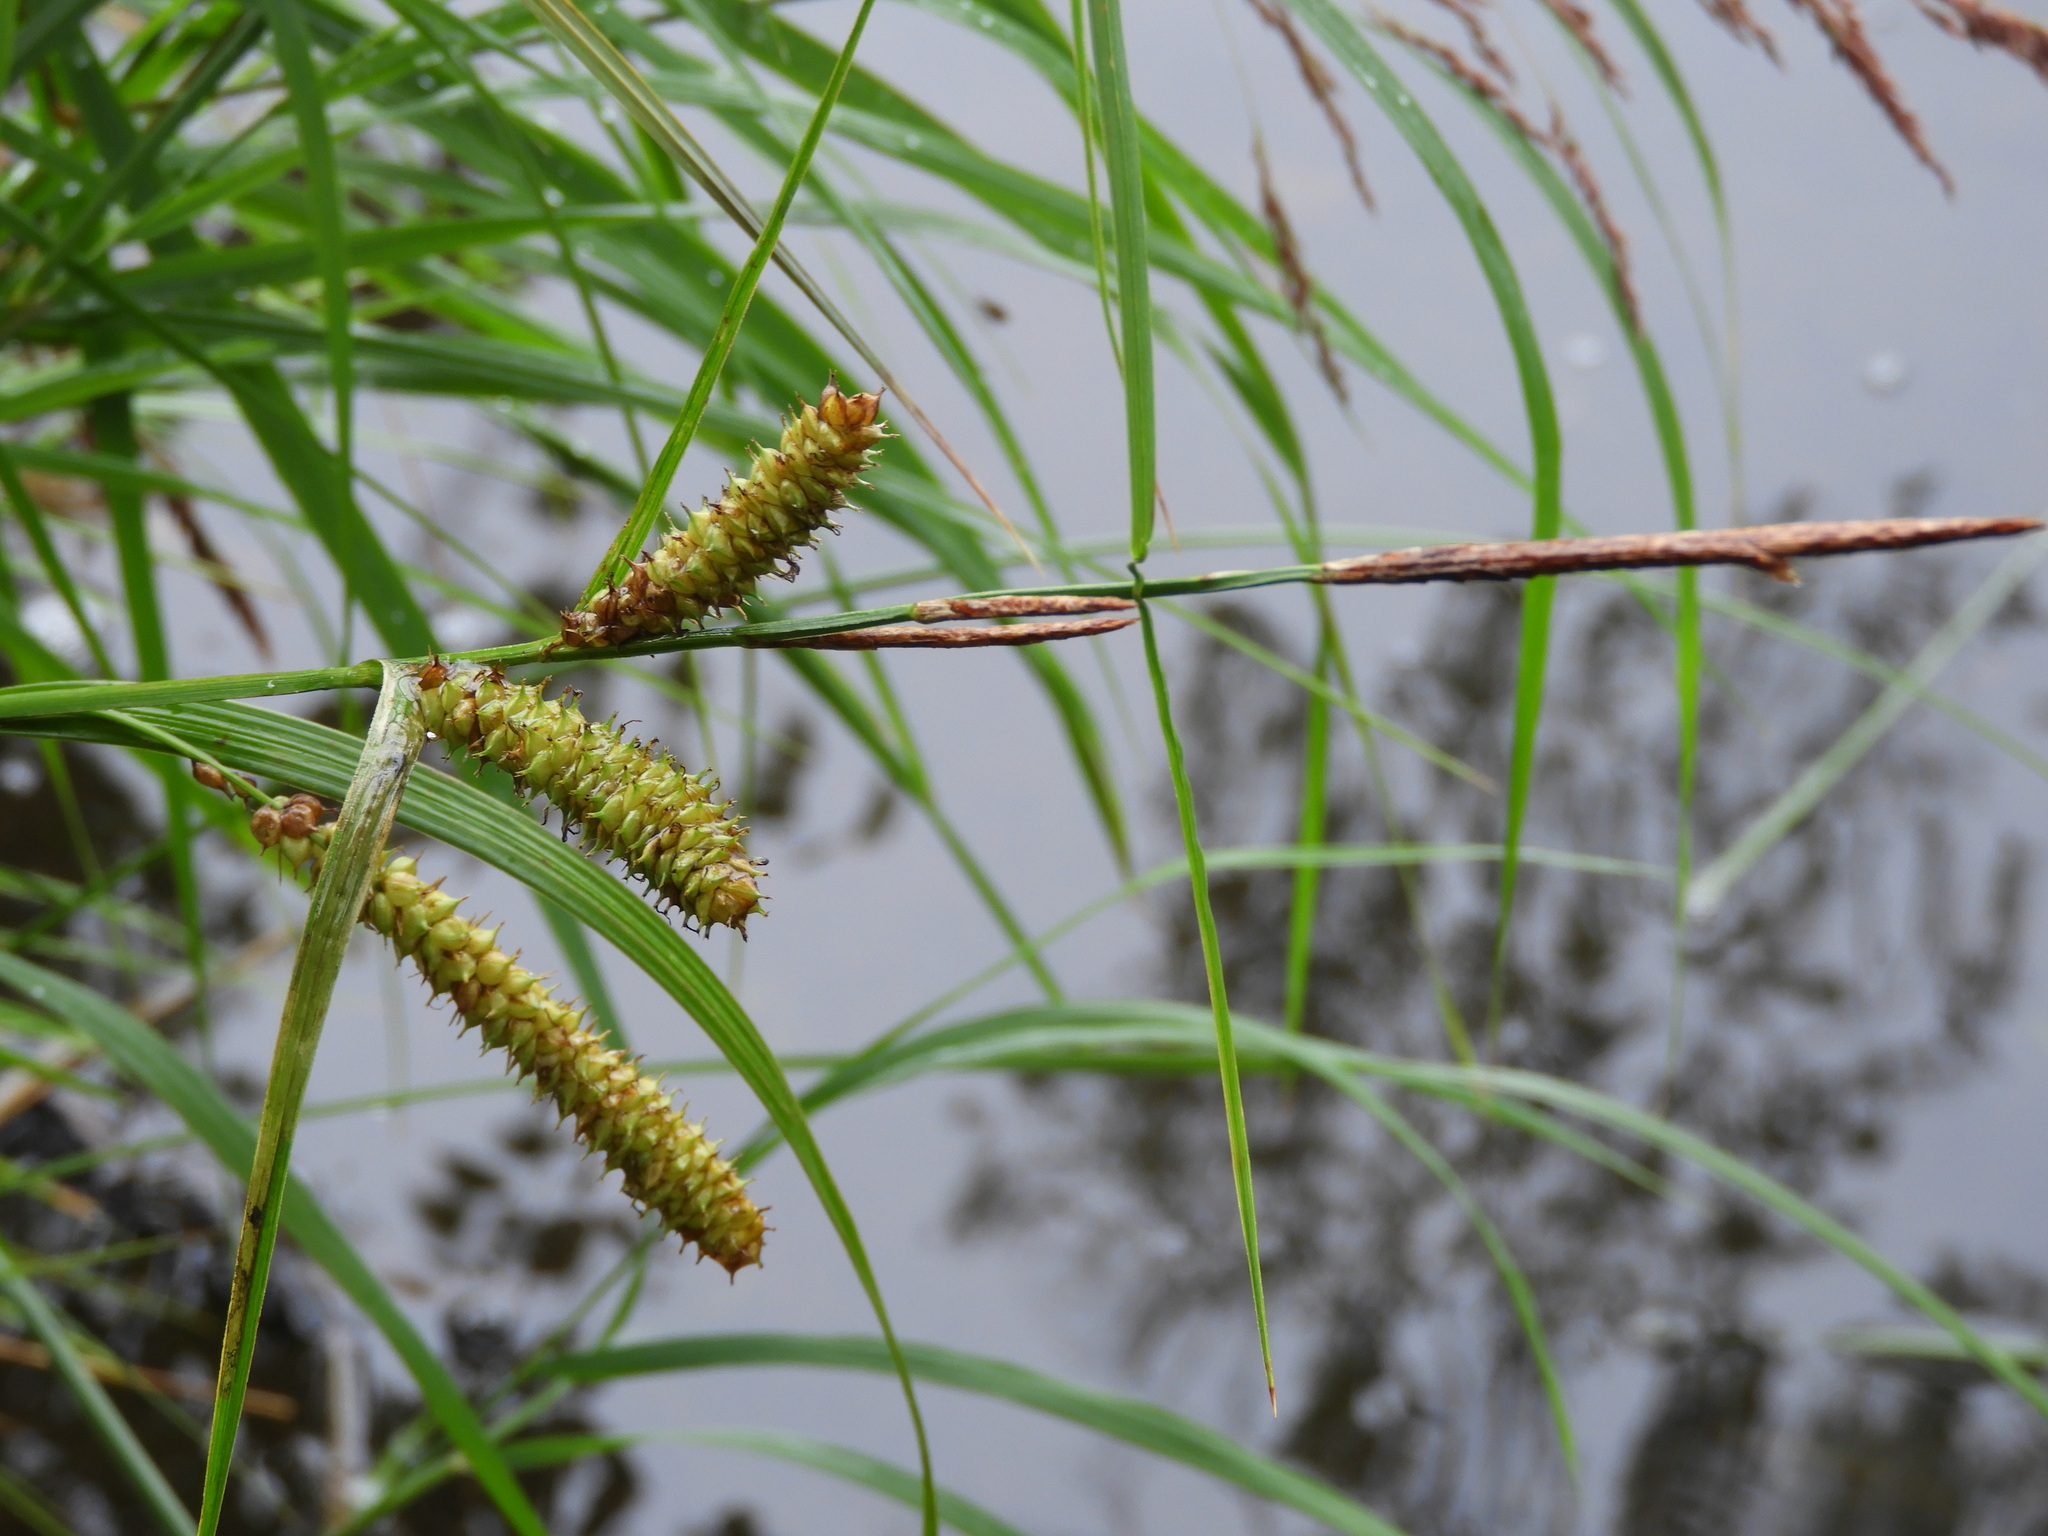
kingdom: Plantae
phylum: Tracheophyta
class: Liliopsida
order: Poales
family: Cyperaceae
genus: Carex
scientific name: Carex utriculata
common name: Beaked sedge
